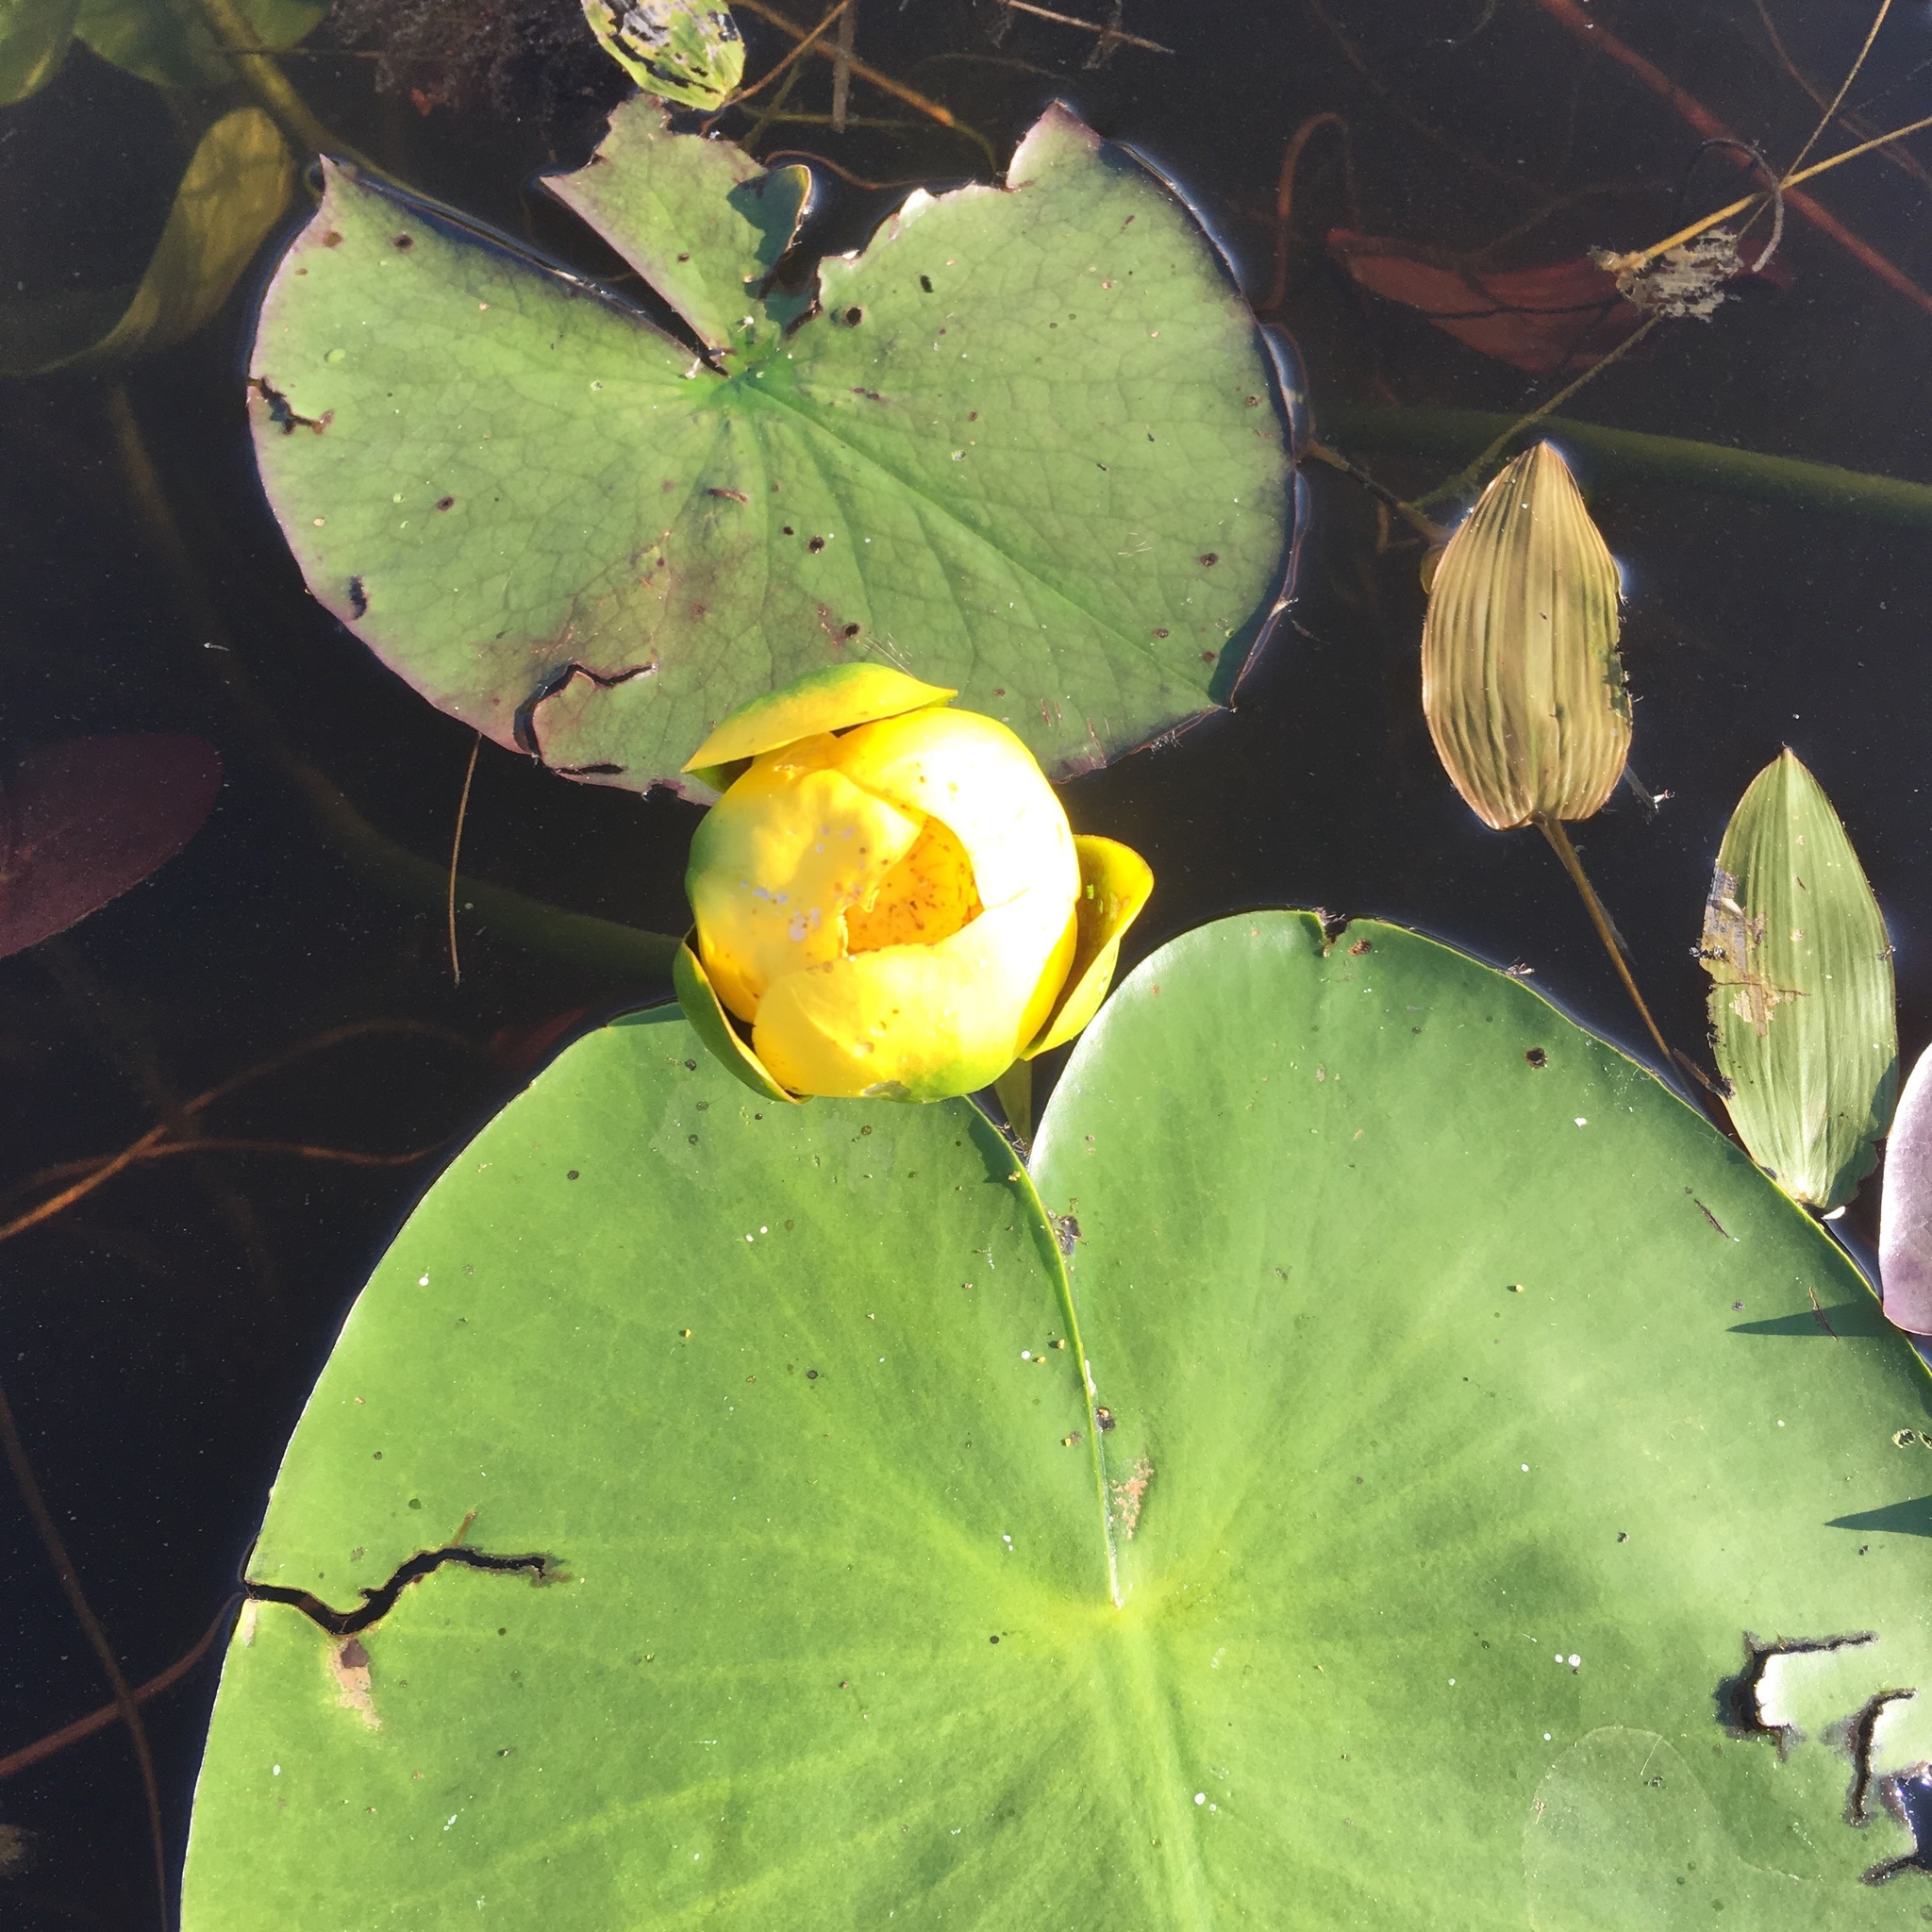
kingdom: Plantae
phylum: Tracheophyta
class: Magnoliopsida
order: Nymphaeales
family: Nymphaeaceae
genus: Nuphar
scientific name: Nuphar variegata
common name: Beaver-root
